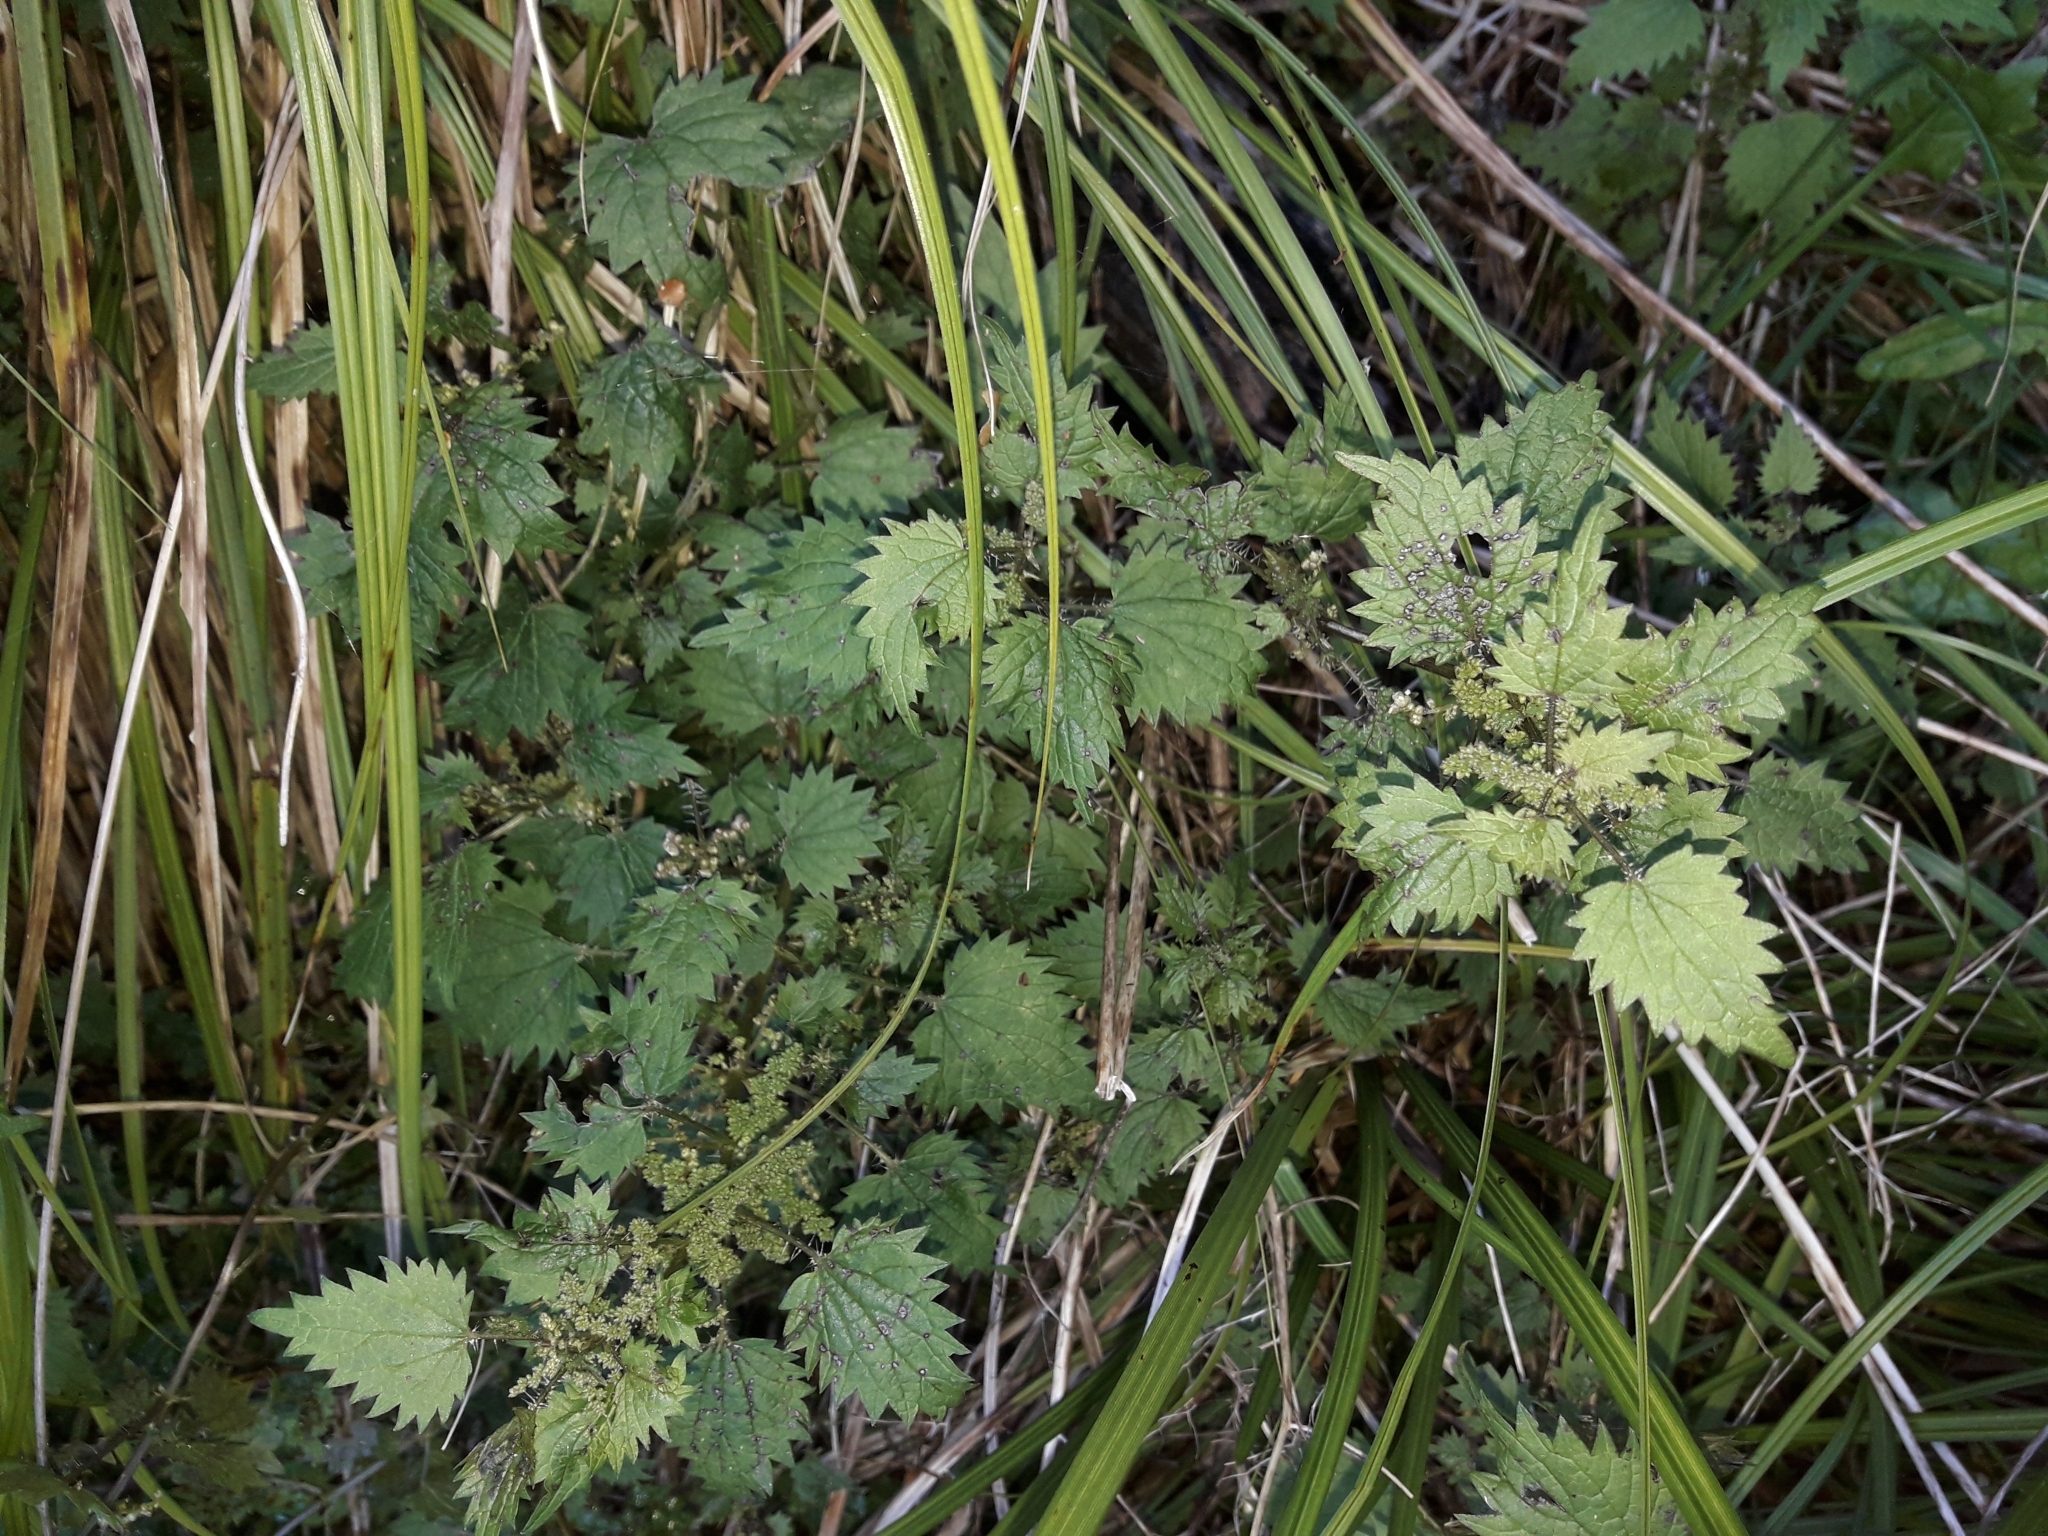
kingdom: Plantae
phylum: Tracheophyta
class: Magnoliopsida
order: Rosales
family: Urticaceae
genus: Urtica
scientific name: Urtica sykesii
